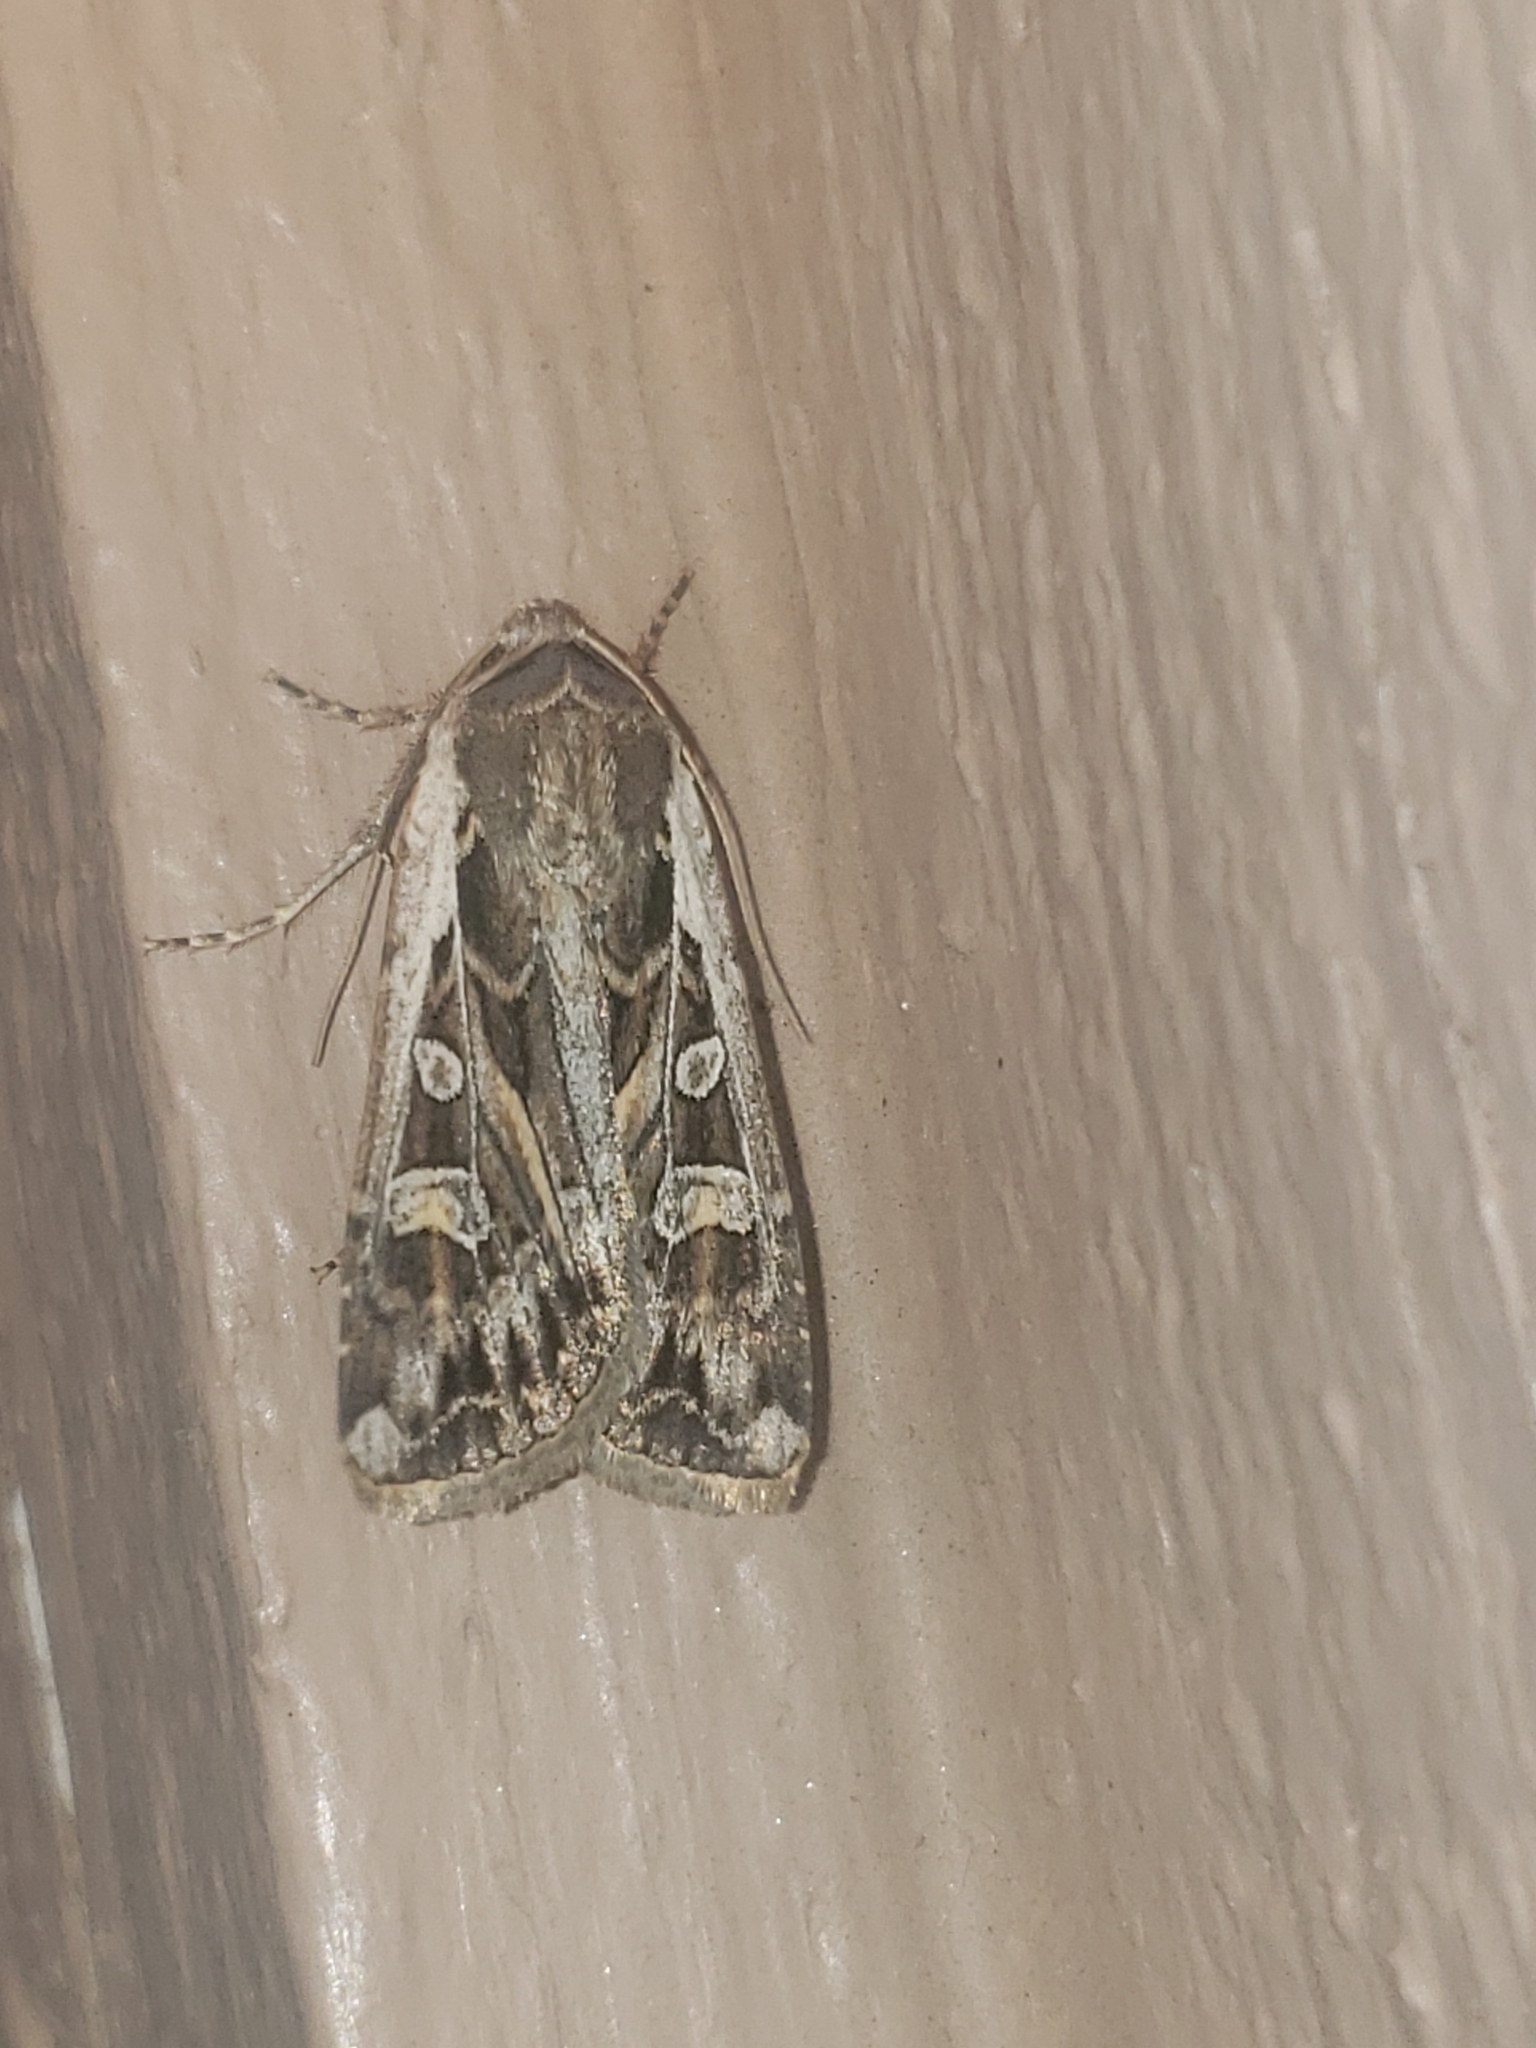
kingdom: Animalia
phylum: Arthropoda
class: Insecta
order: Lepidoptera
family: Noctuidae
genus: Euxoa
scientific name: Euxoa auxiliaris
